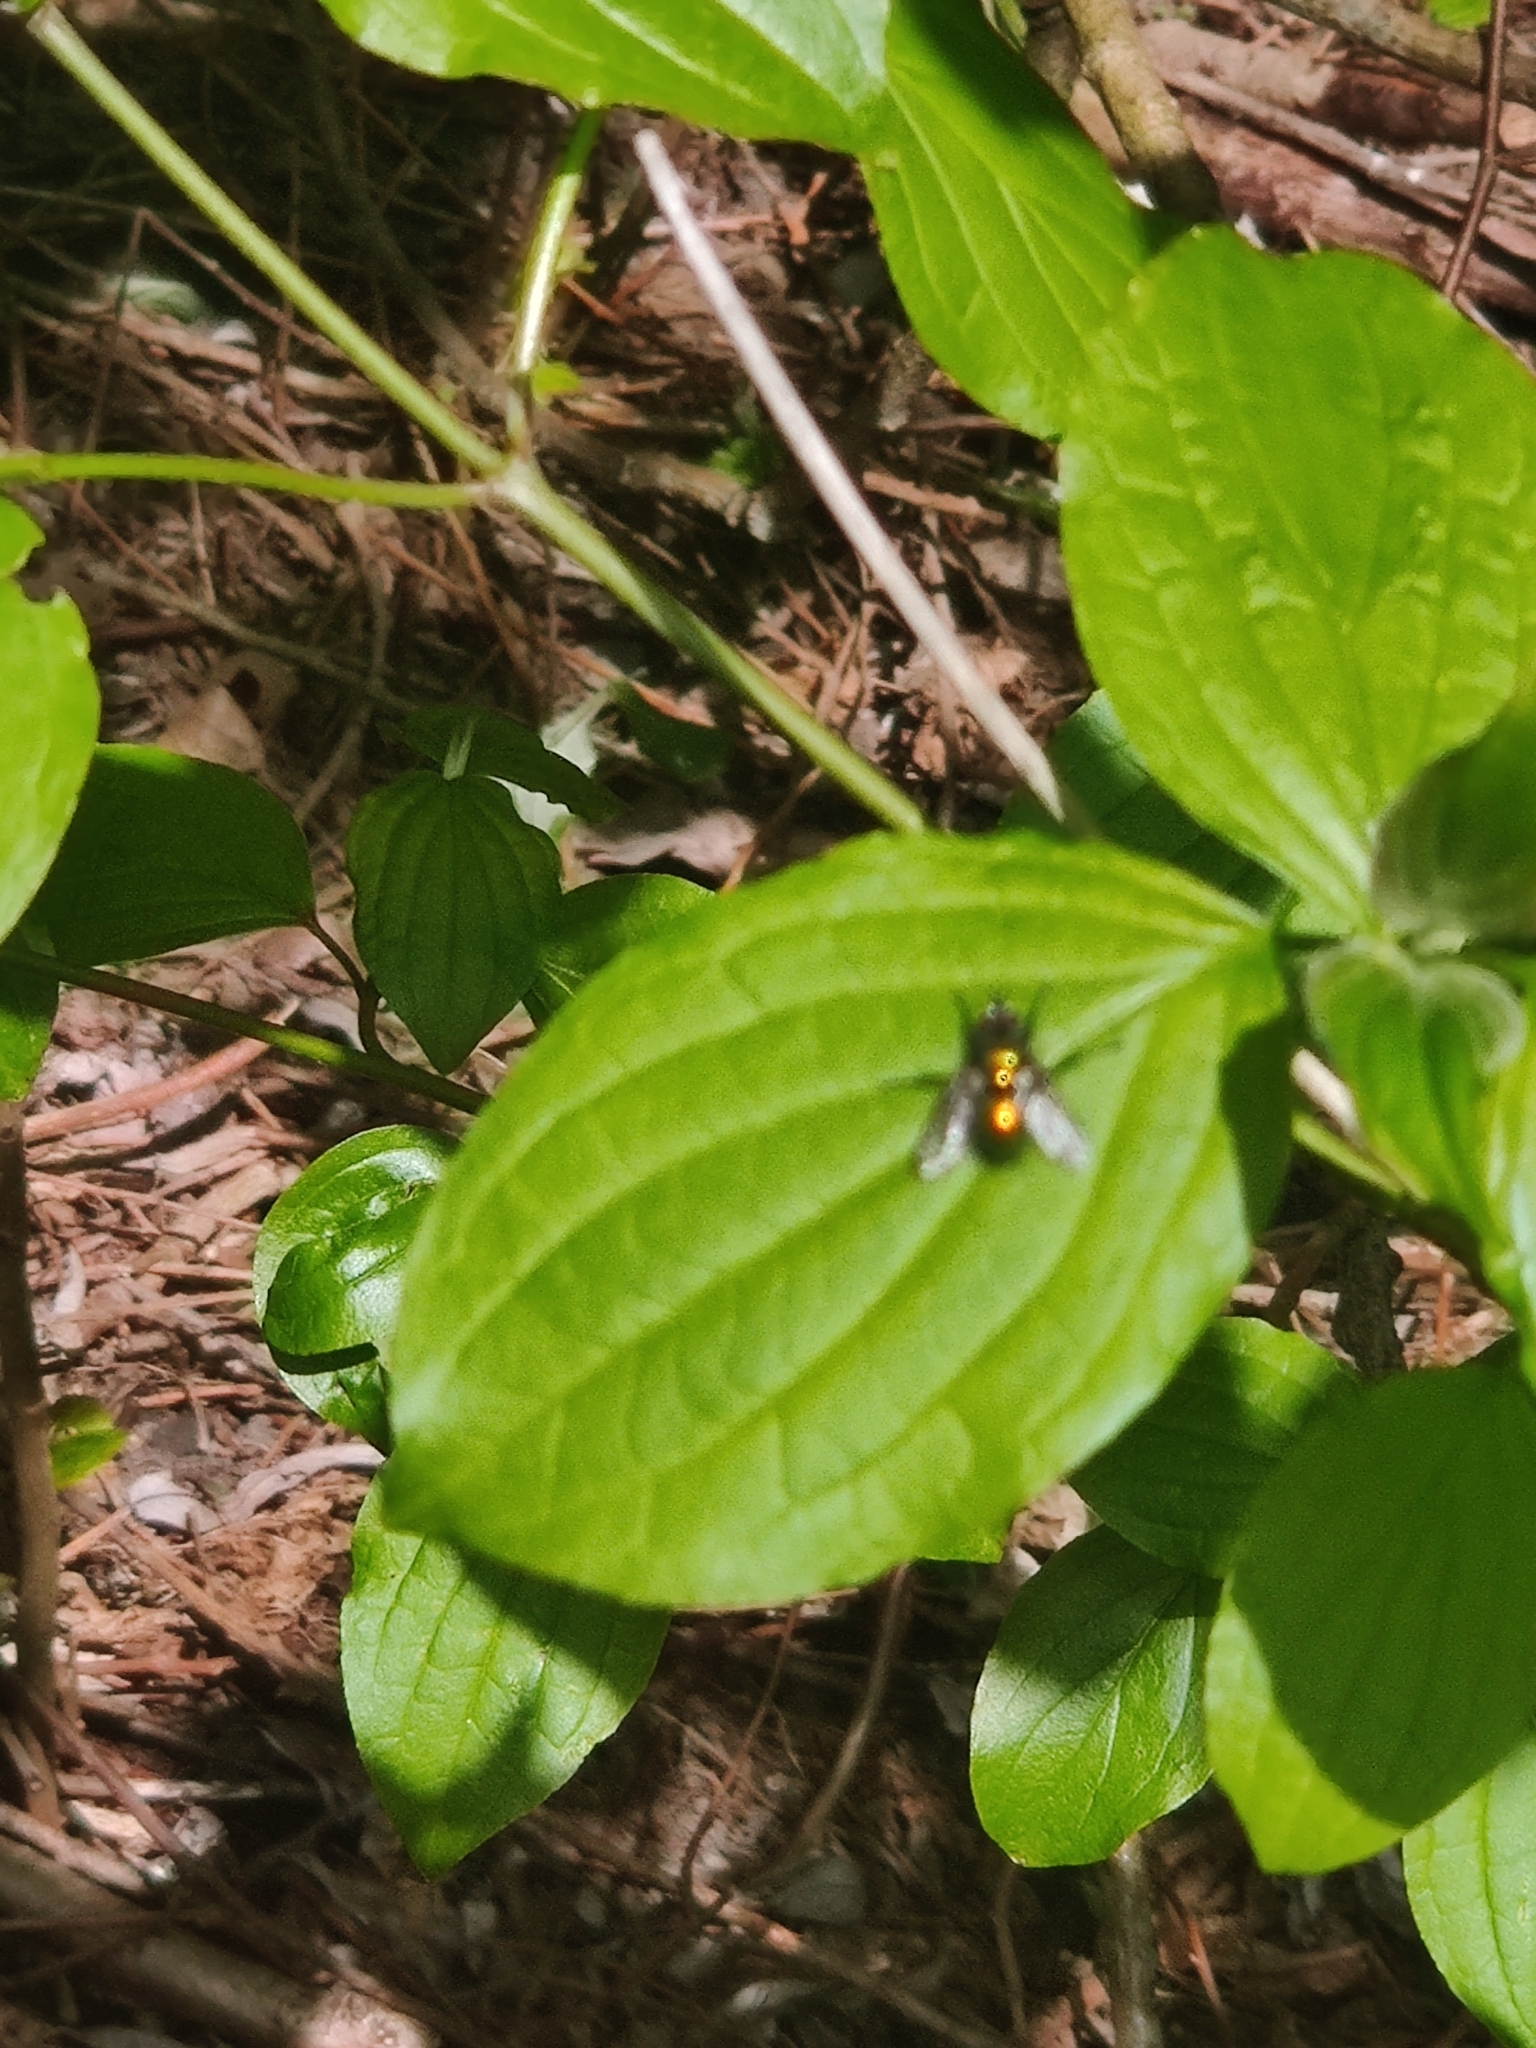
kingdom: Animalia
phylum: Arthropoda
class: Insecta
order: Diptera
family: Tachinidae
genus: Gymnocheta
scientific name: Gymnocheta viridis
